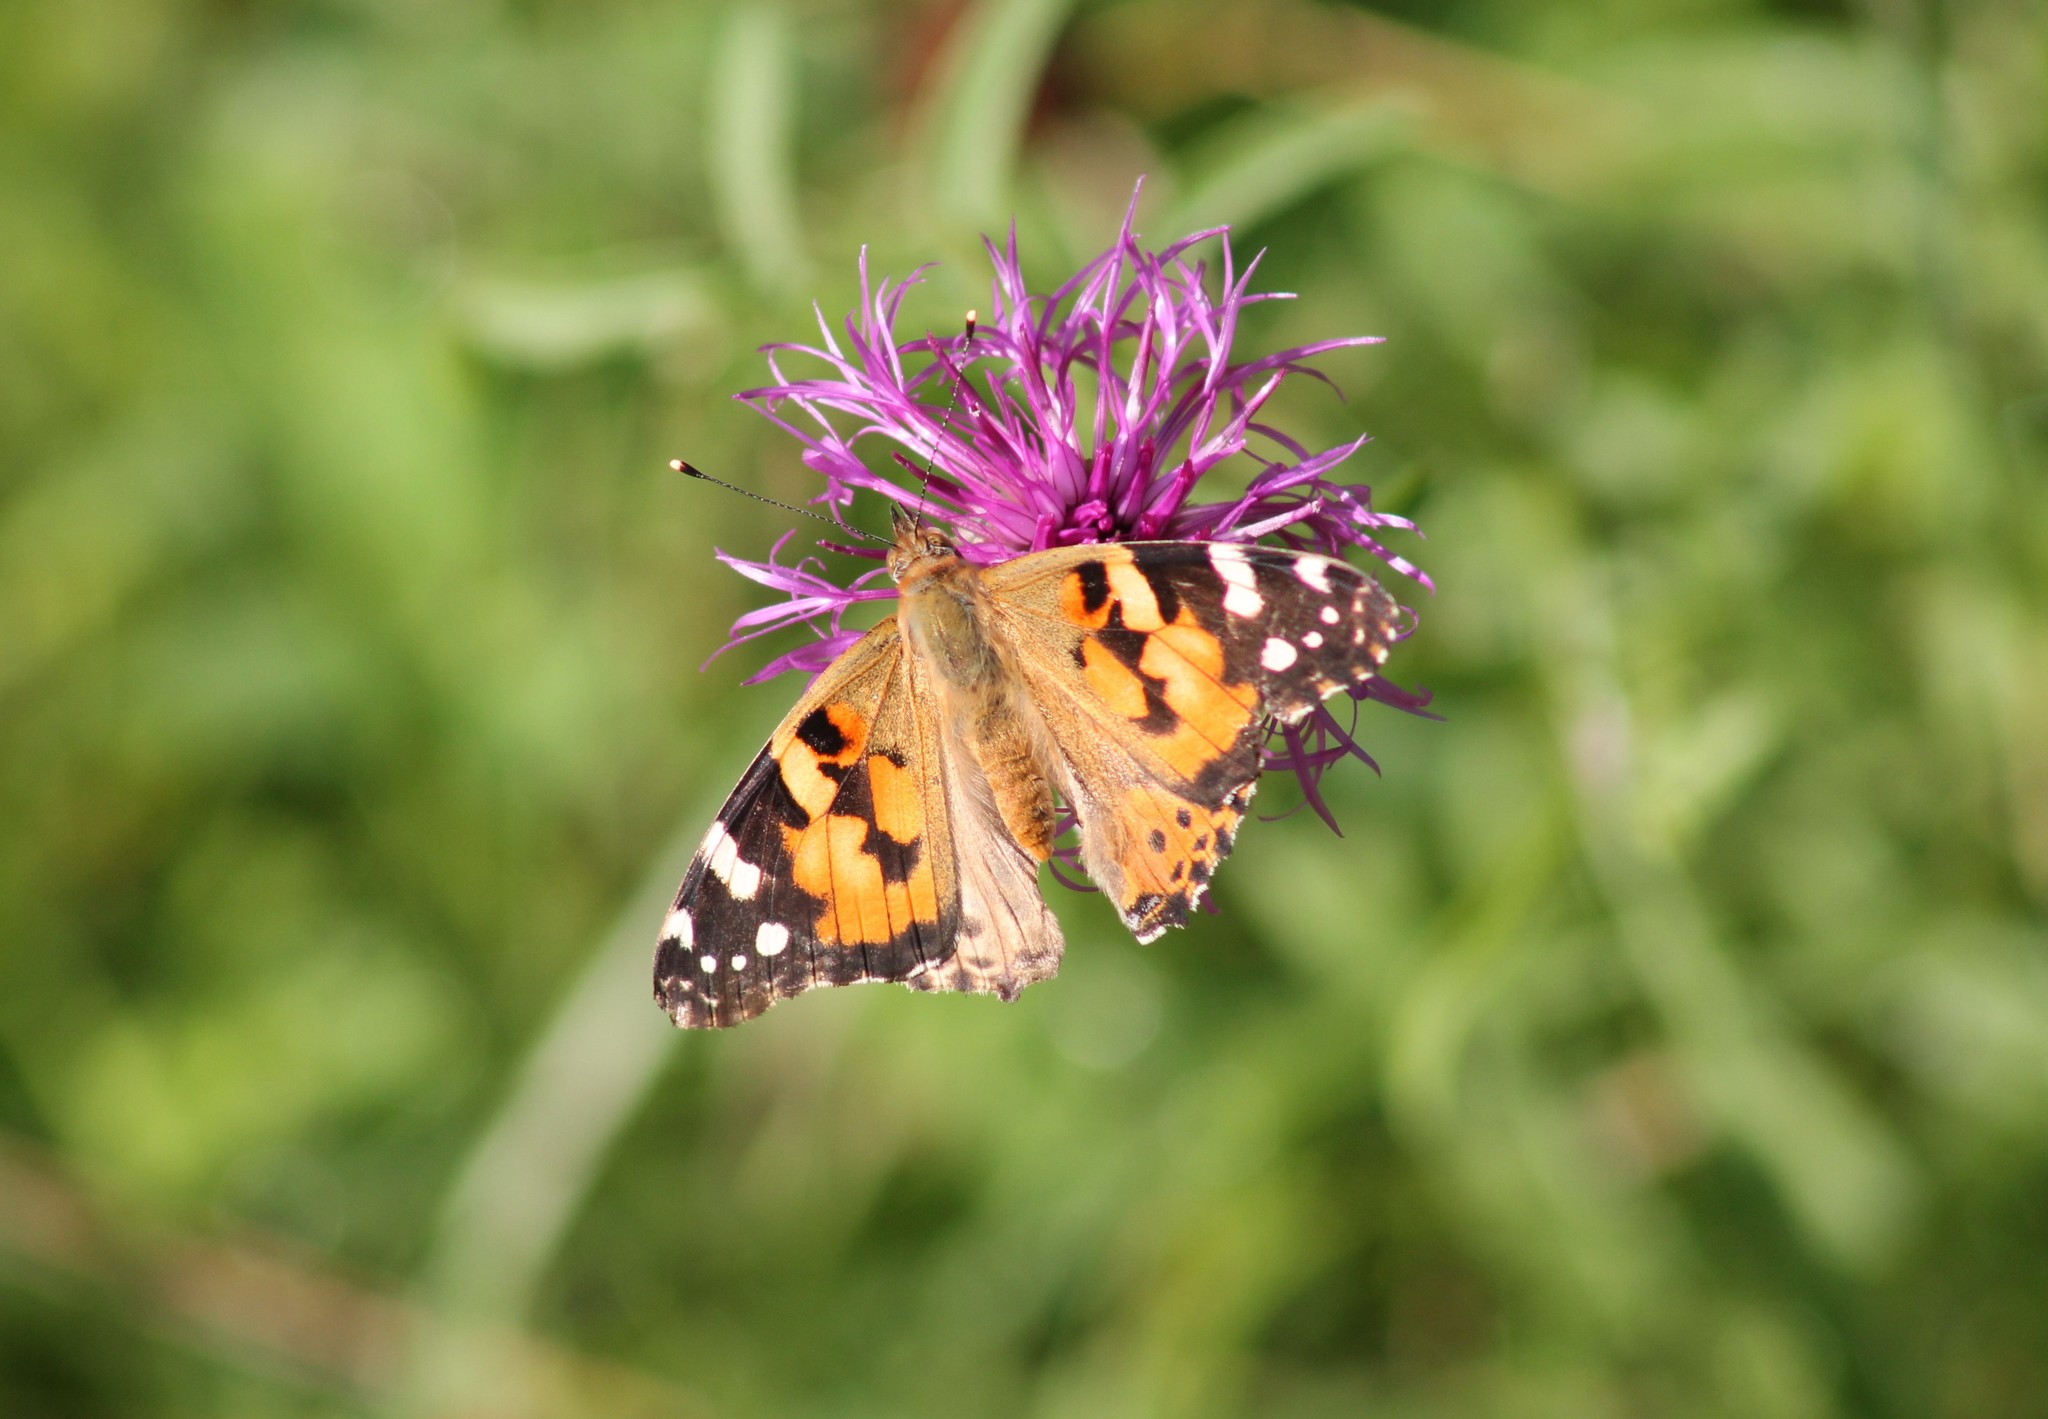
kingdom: Animalia
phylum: Arthropoda
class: Insecta
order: Lepidoptera
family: Nymphalidae
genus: Vanessa
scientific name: Vanessa cardui
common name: Painted lady
